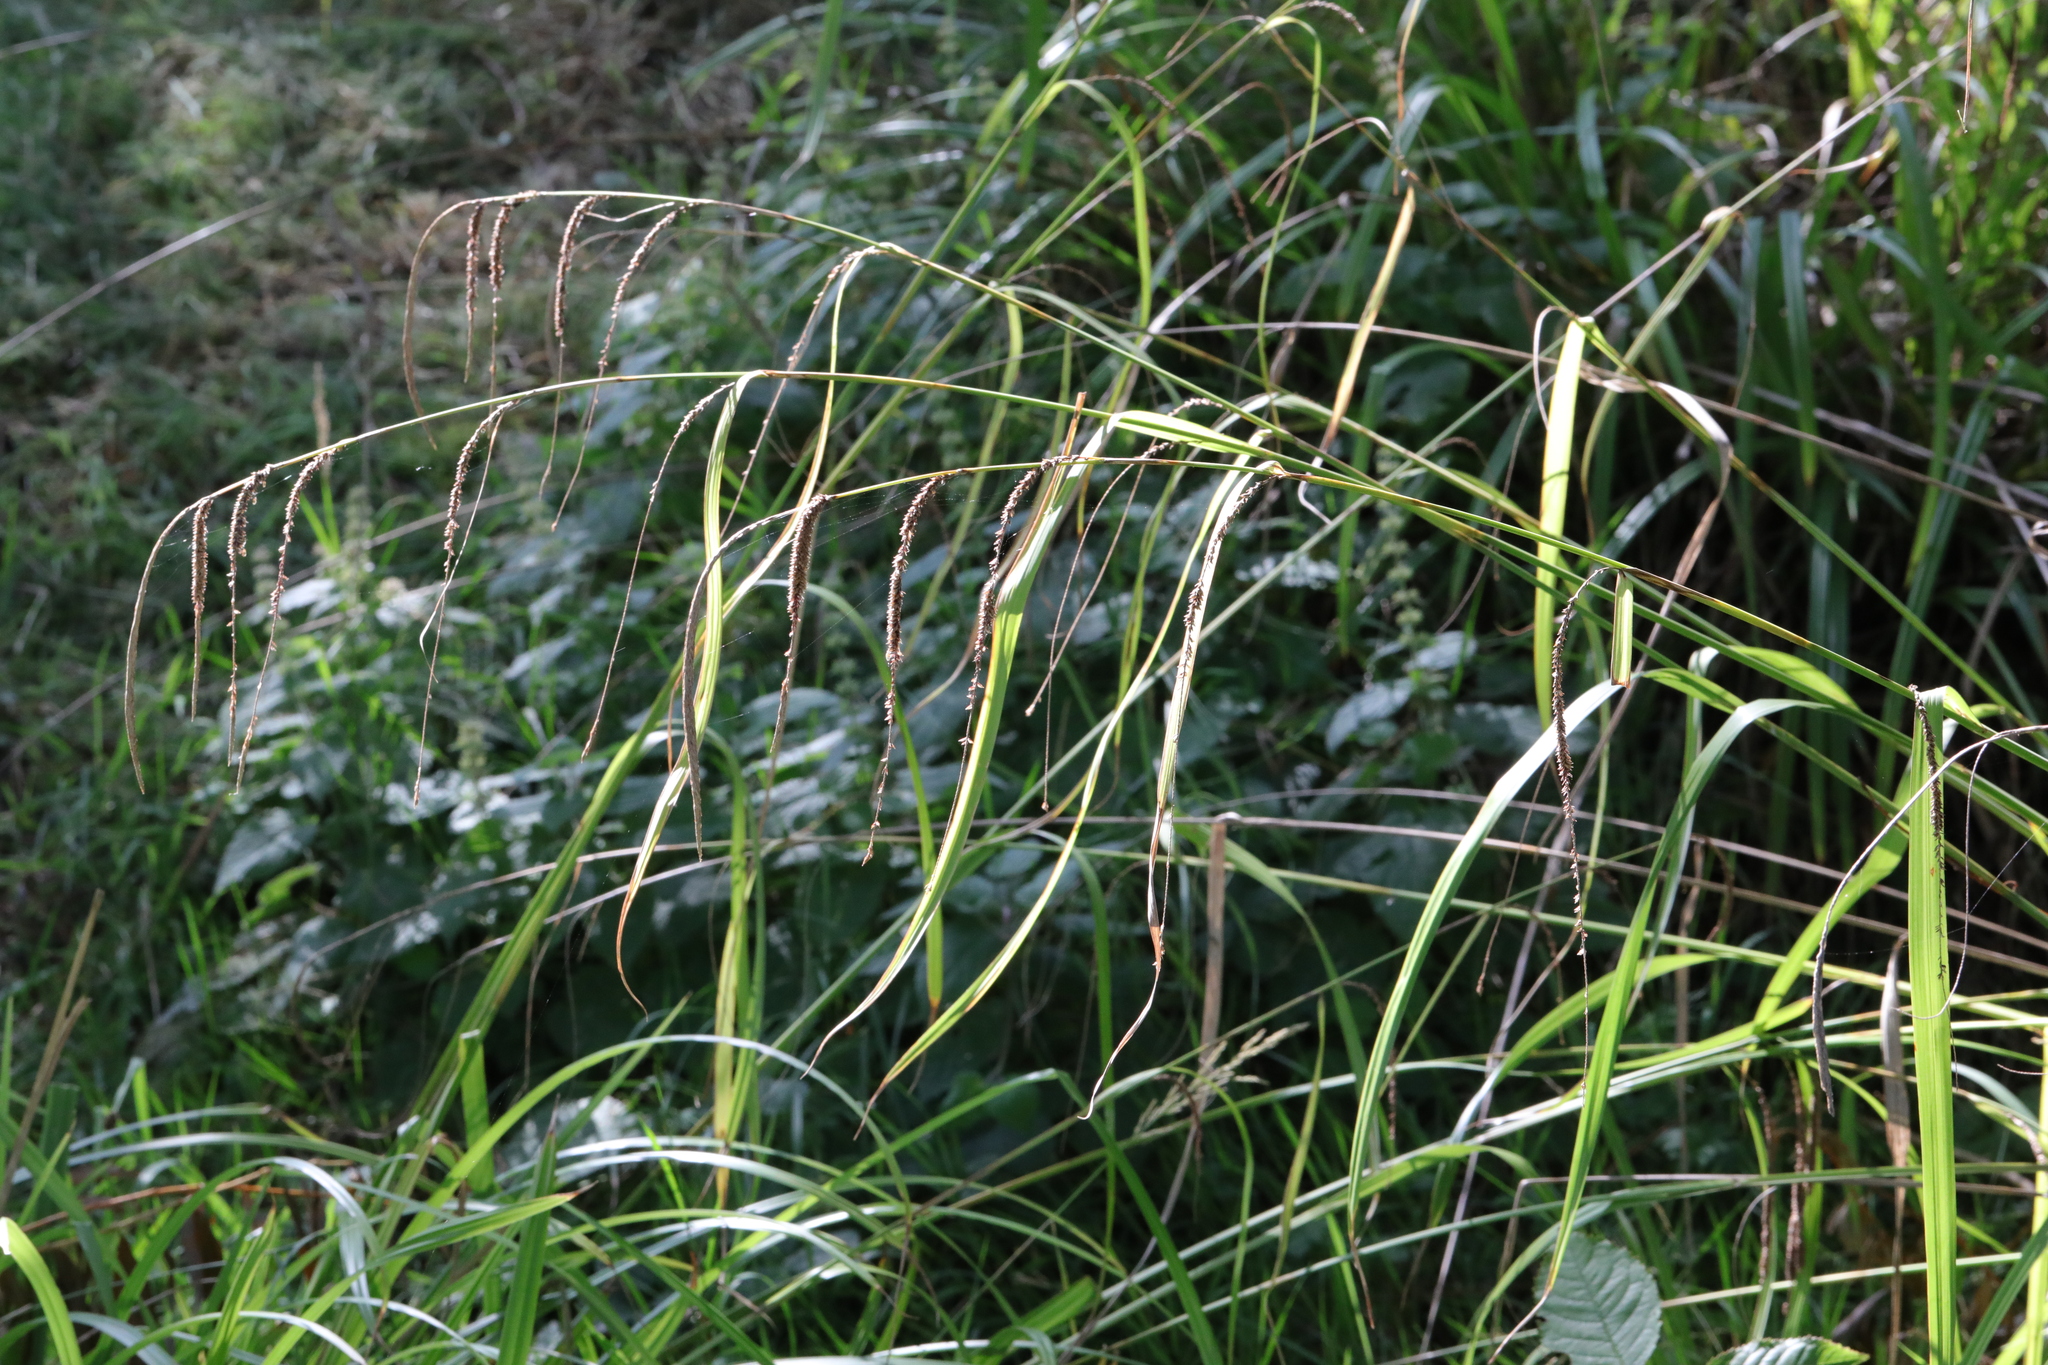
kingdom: Plantae
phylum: Tracheophyta
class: Liliopsida
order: Poales
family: Cyperaceae
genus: Carex
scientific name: Carex pendula
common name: Pendulous sedge
